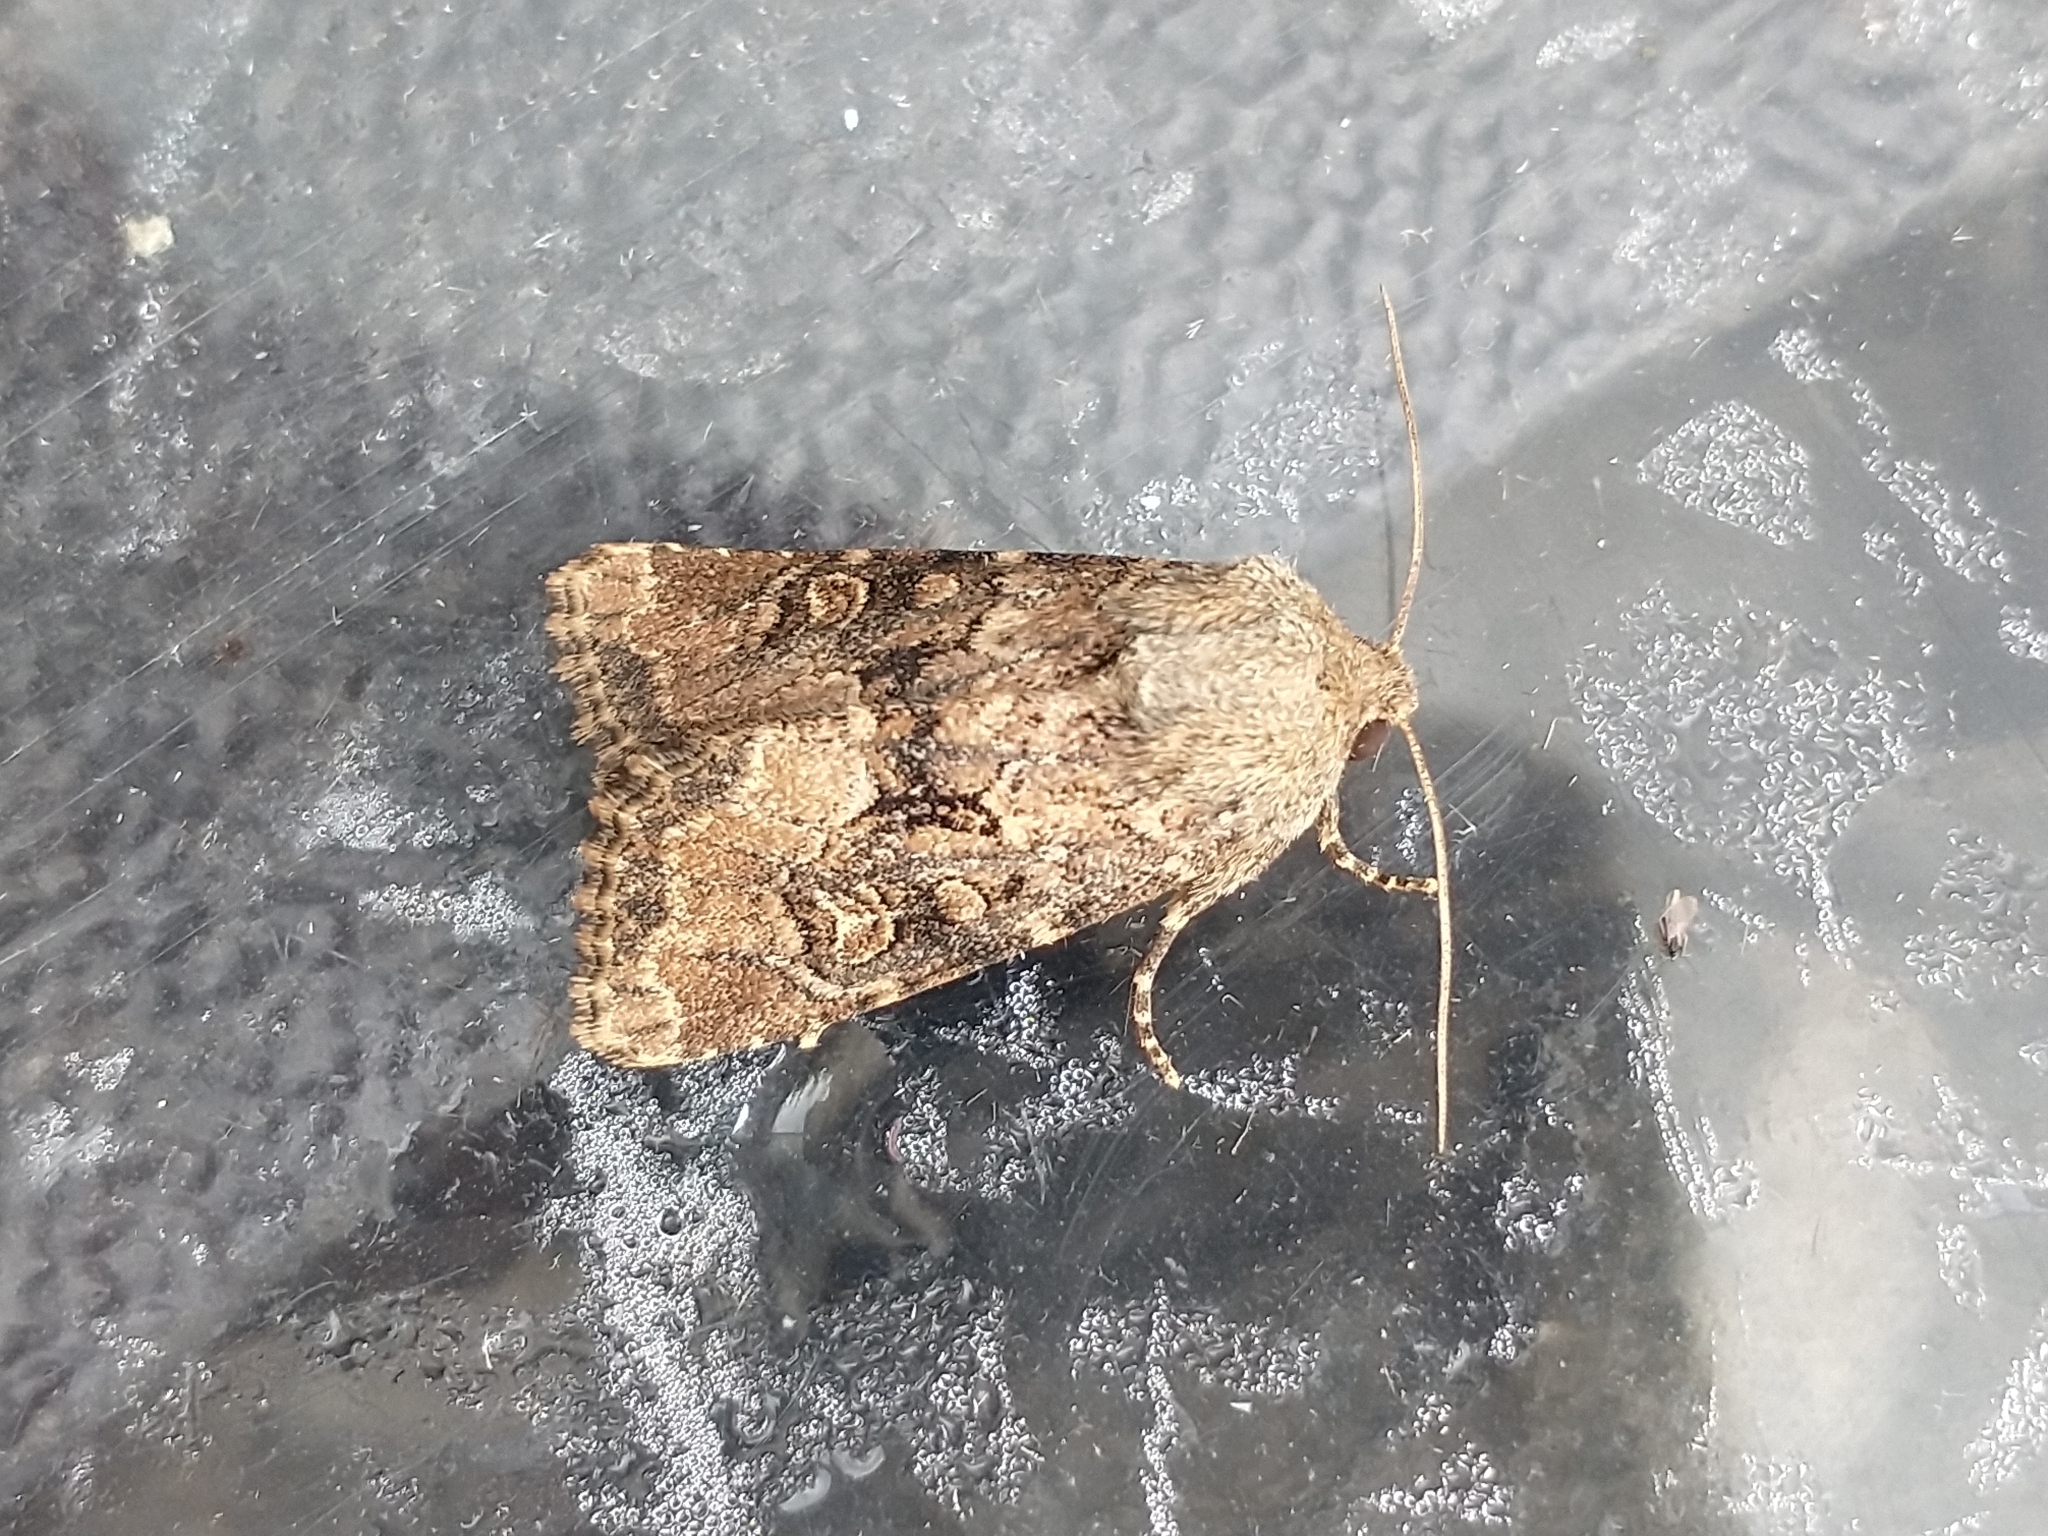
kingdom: Animalia
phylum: Arthropoda
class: Insecta
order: Lepidoptera
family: Noctuidae
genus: Luperina
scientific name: Luperina testacea
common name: Flounced rustic
